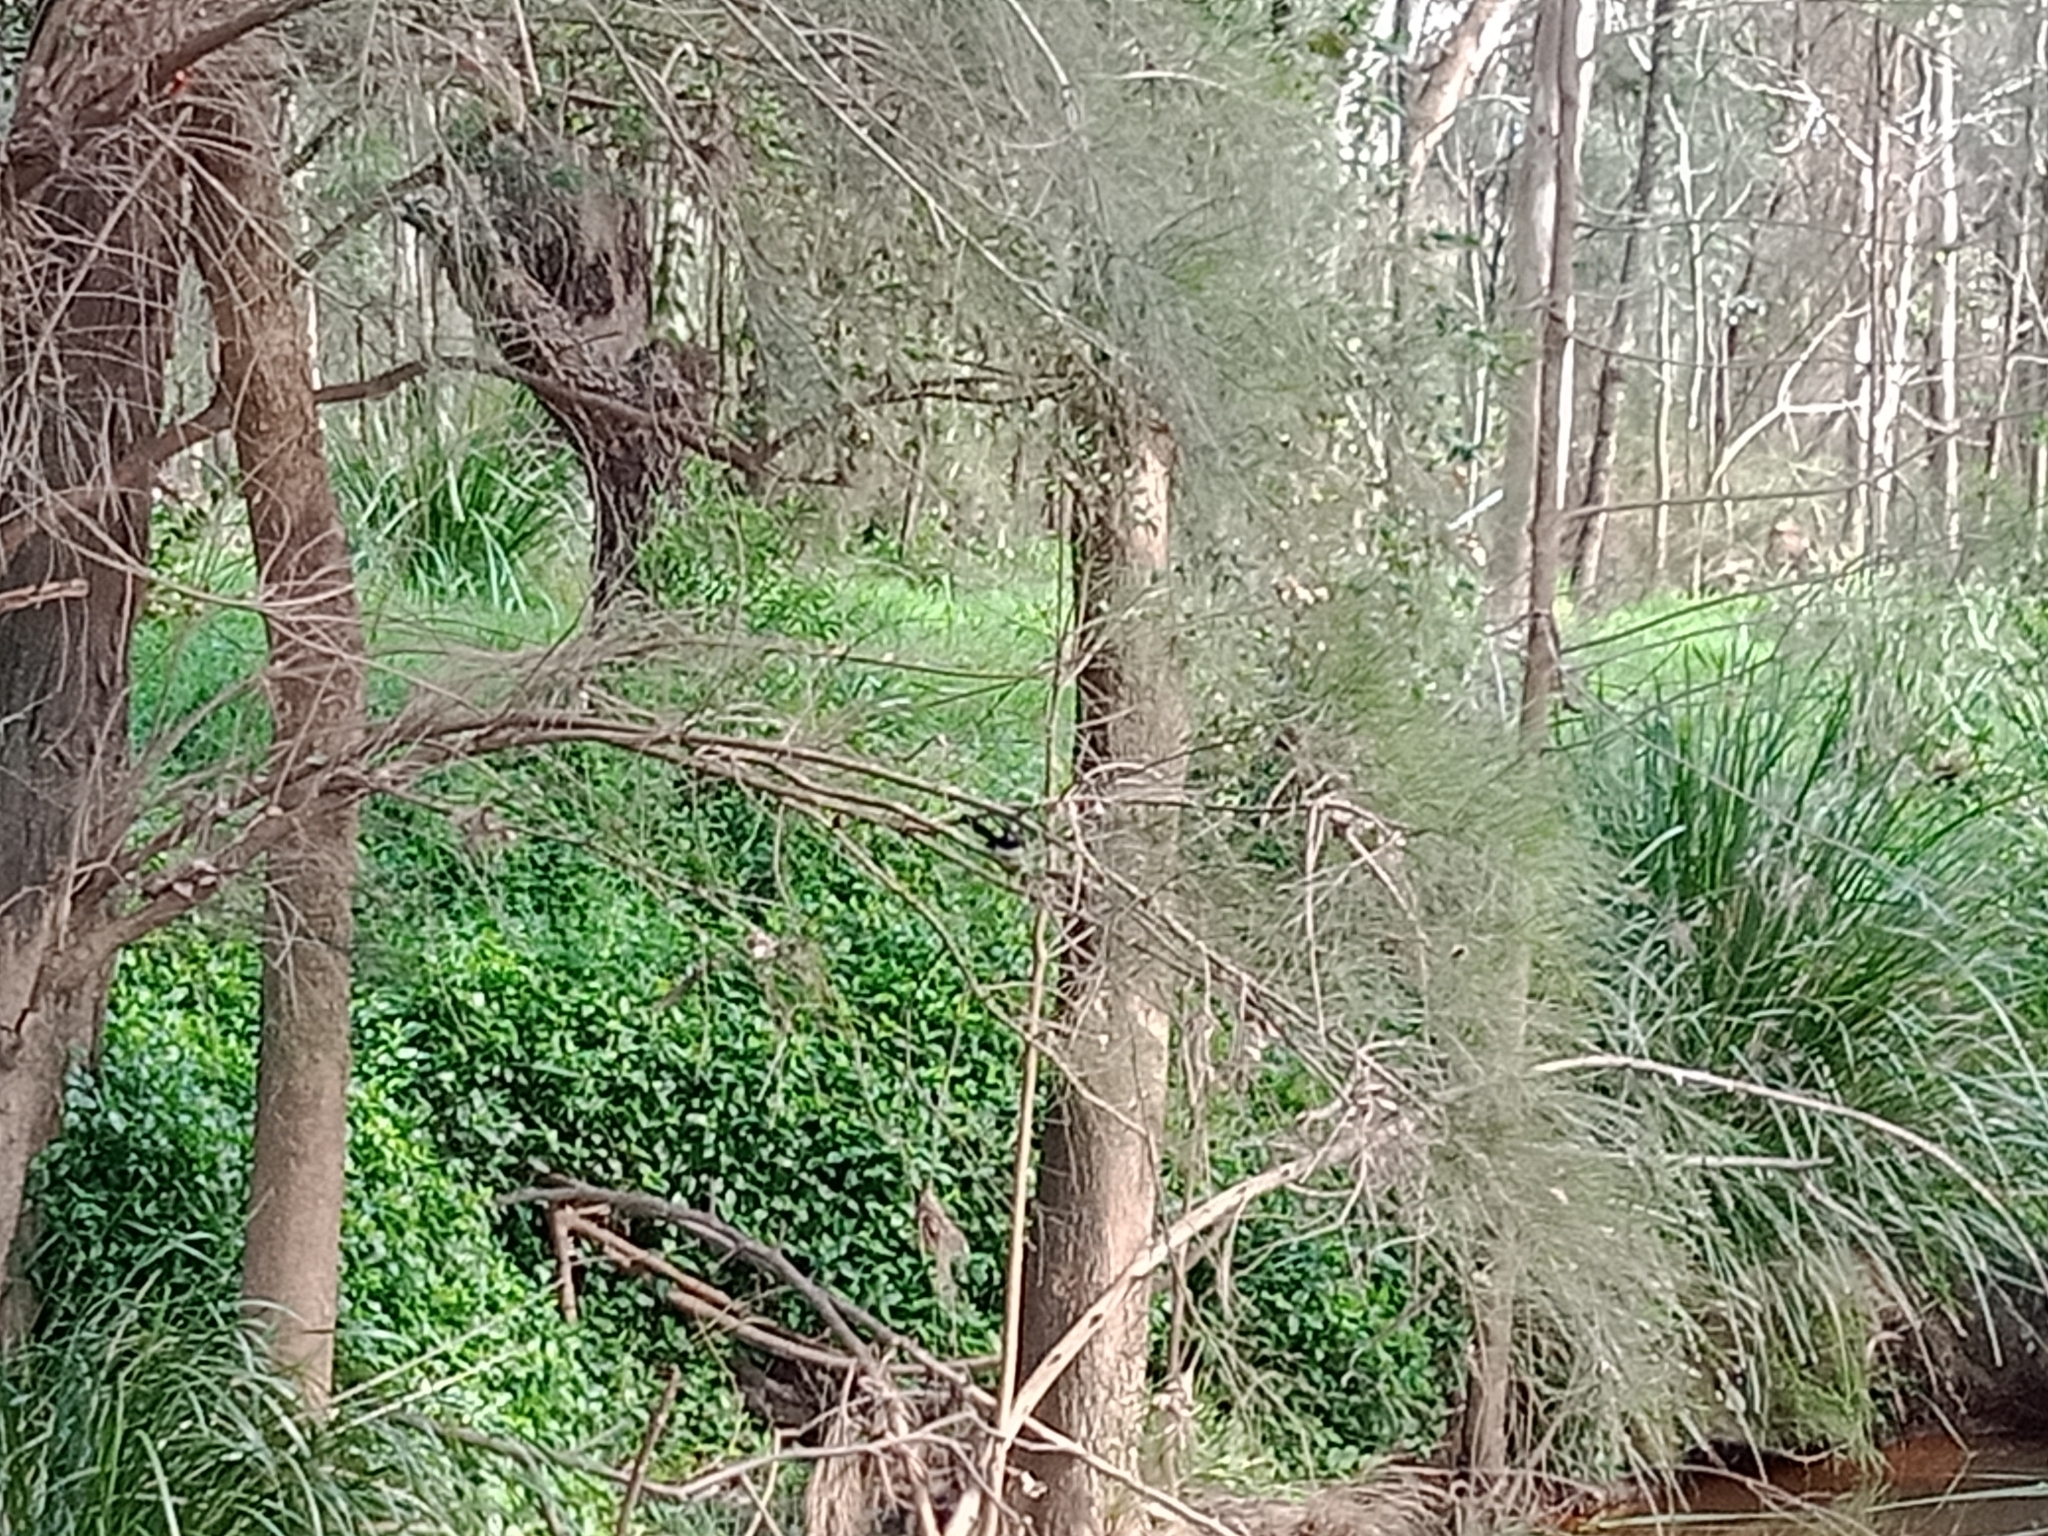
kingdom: Animalia
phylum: Chordata
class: Aves
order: Passeriformes
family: Rhipiduridae
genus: Rhipidura
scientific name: Rhipidura leucophrys
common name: Willie wagtail
